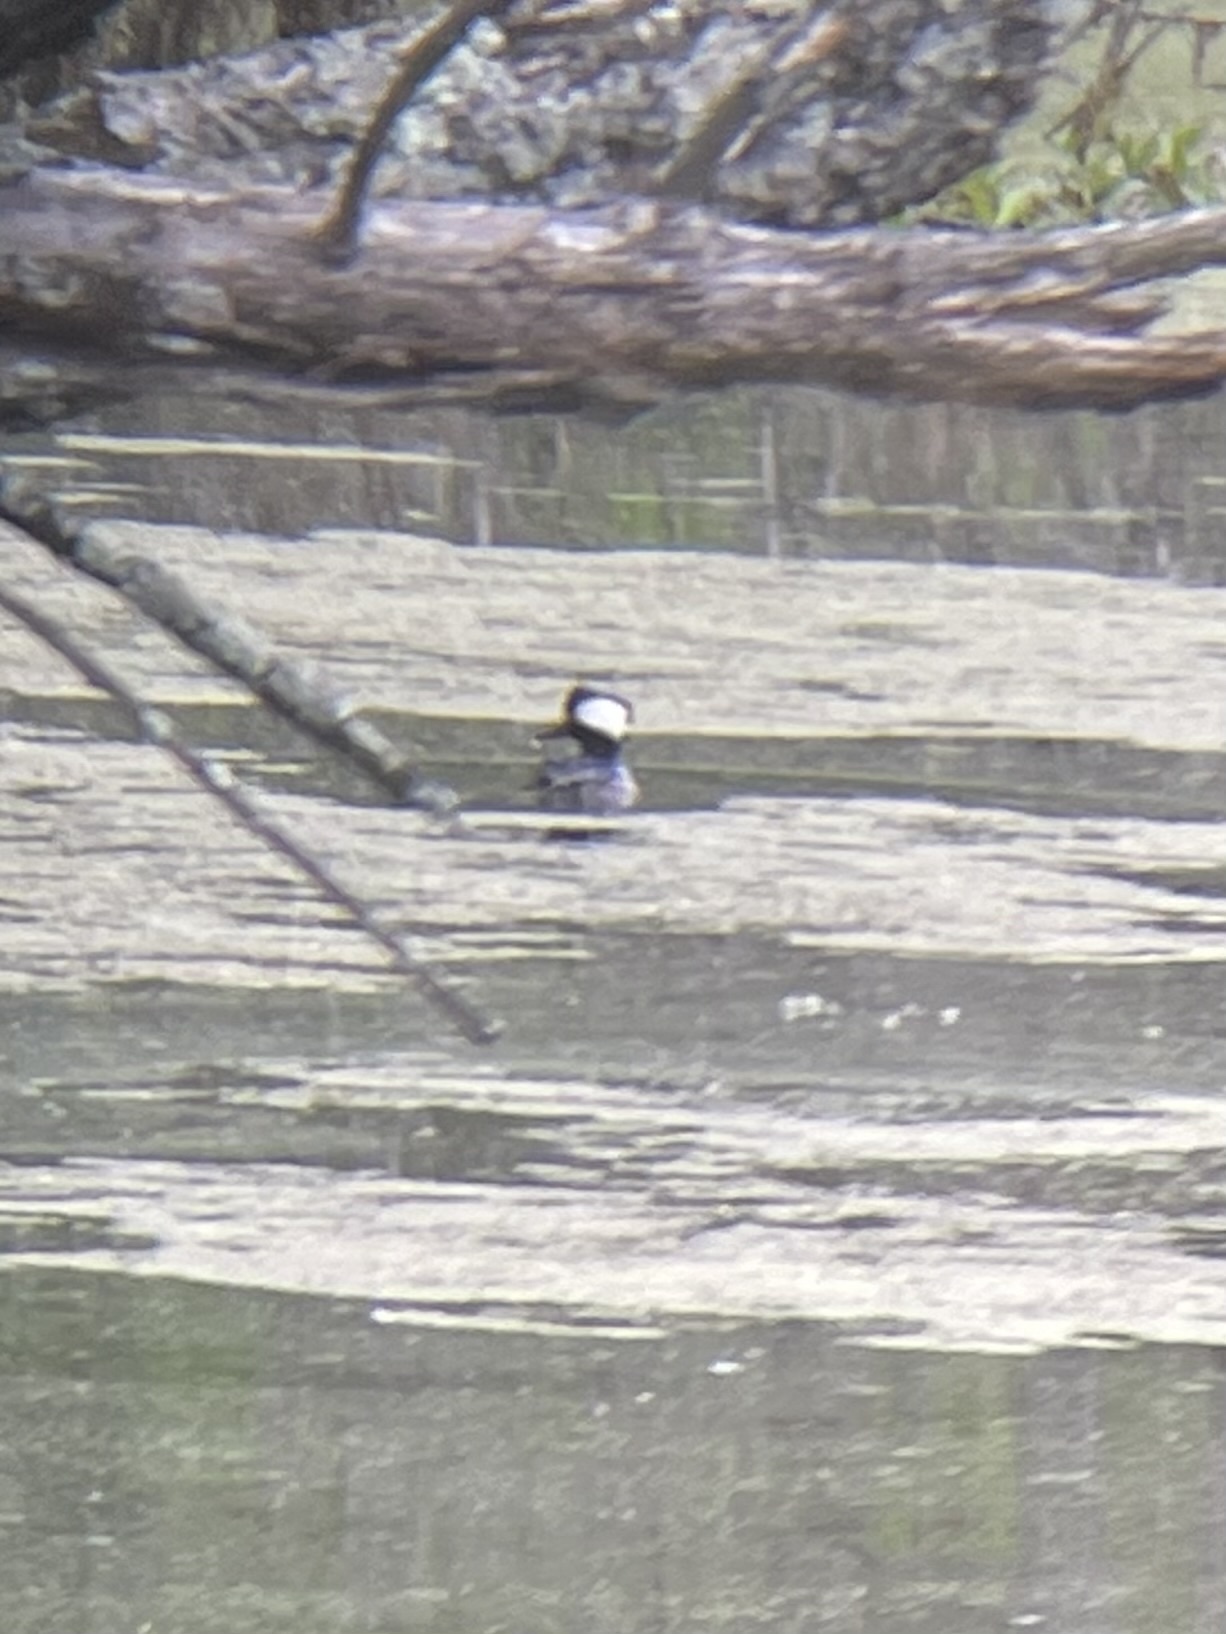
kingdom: Animalia
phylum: Chordata
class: Aves
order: Anseriformes
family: Anatidae
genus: Lophodytes
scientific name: Lophodytes cucullatus
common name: Hooded merganser
